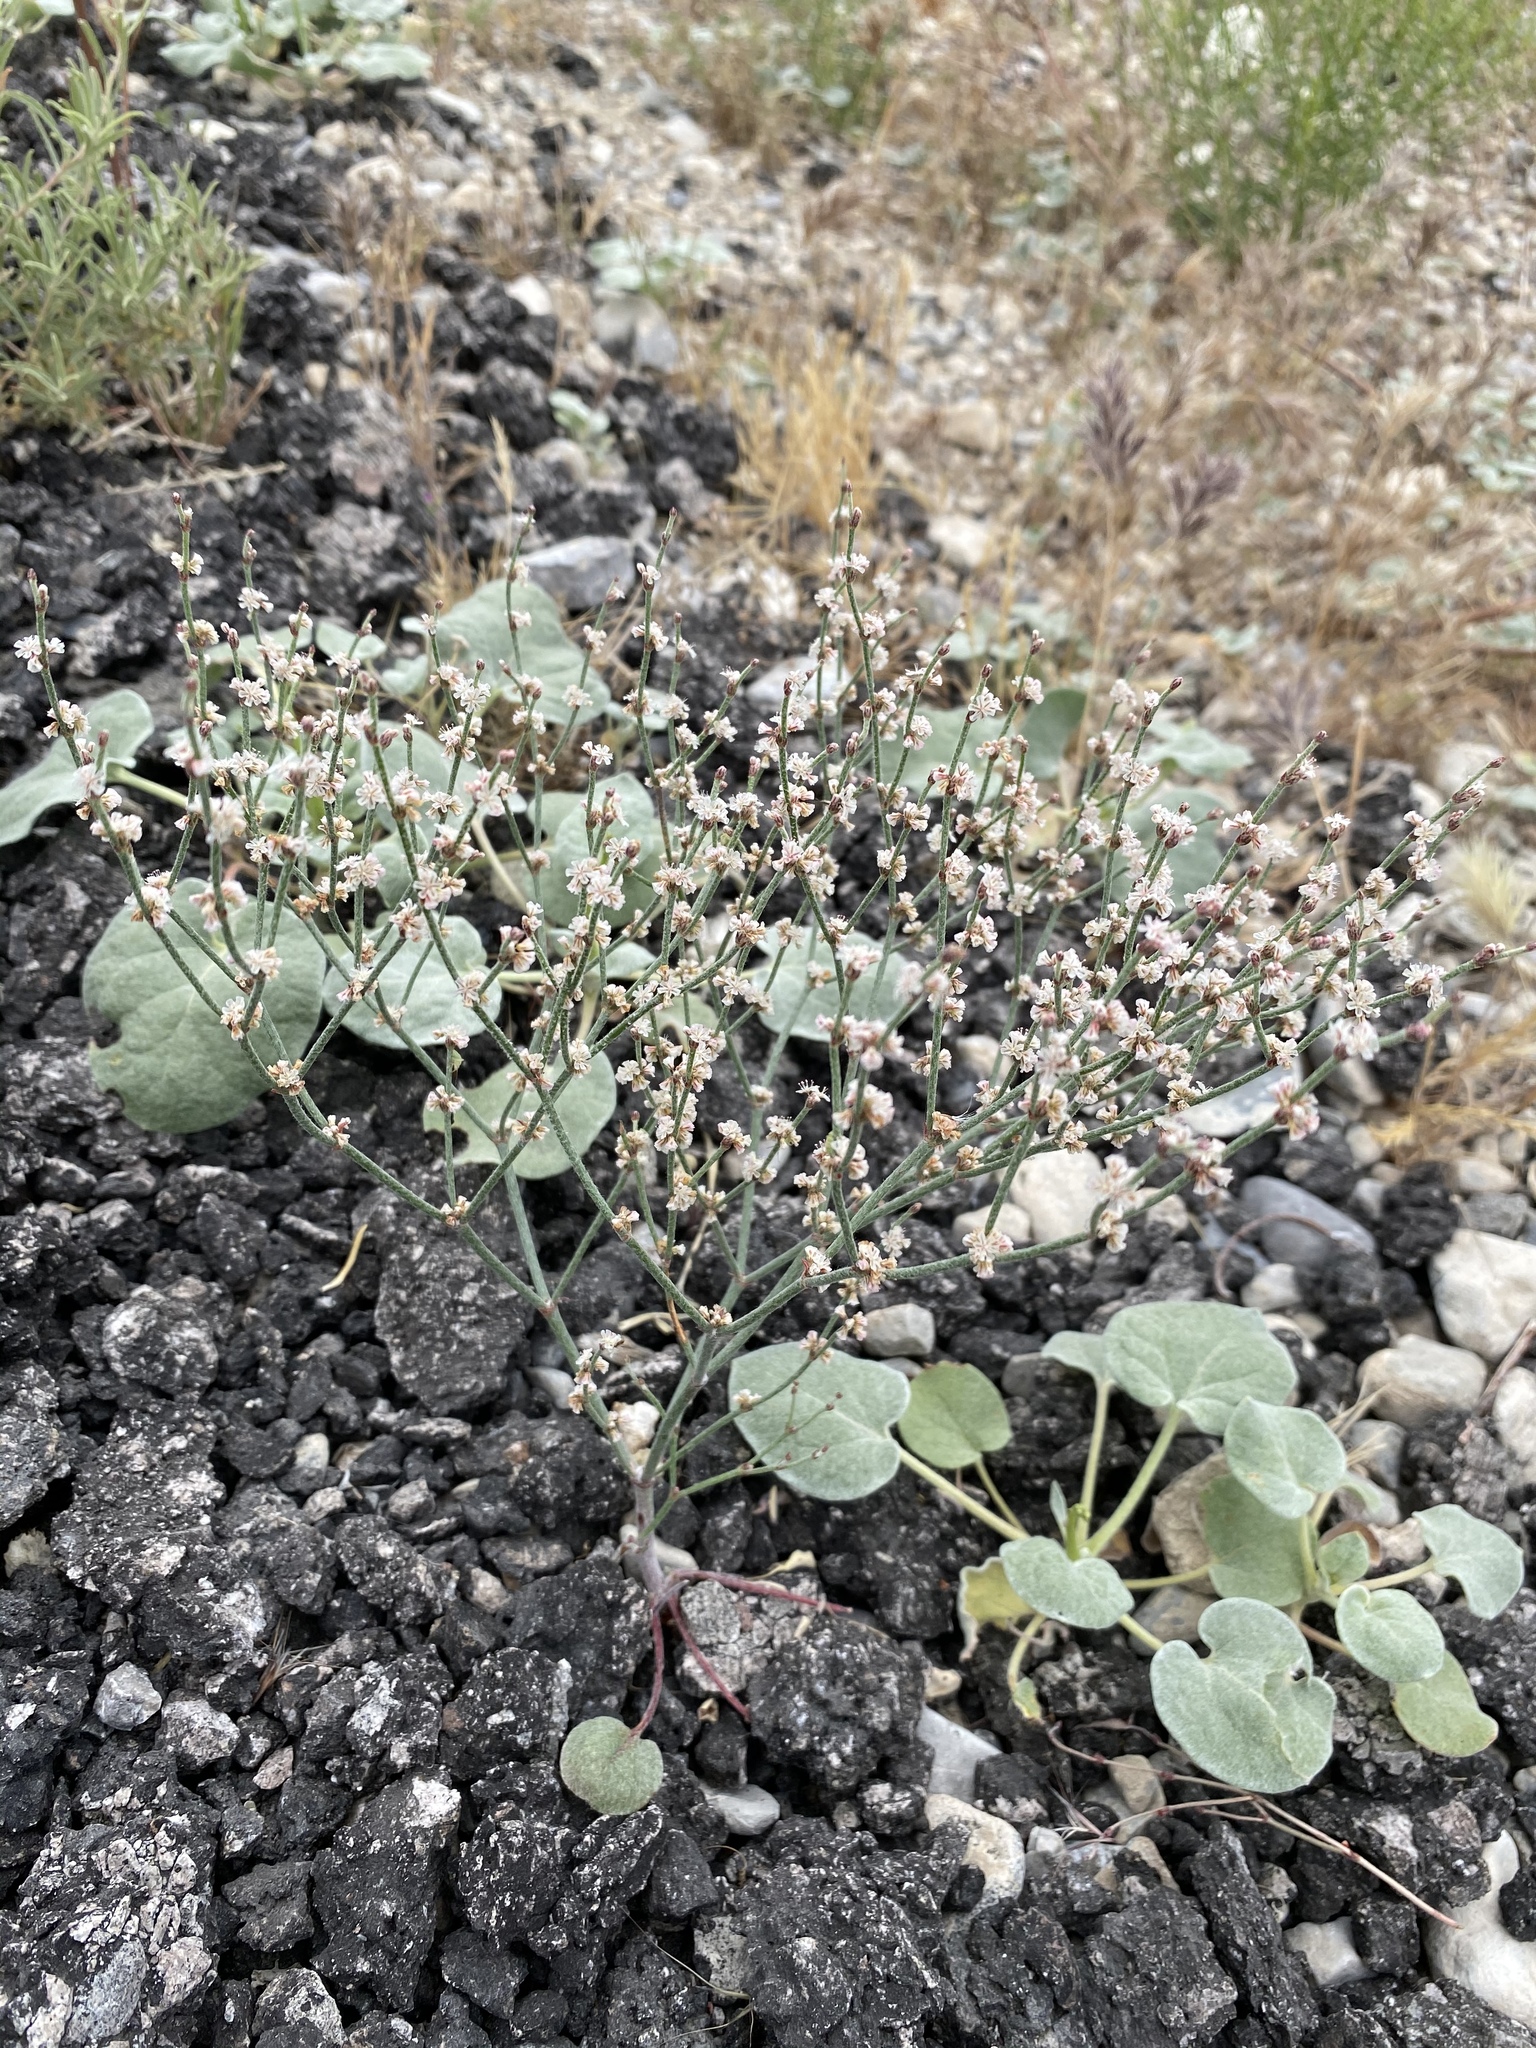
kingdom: Plantae
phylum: Tracheophyta
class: Magnoliopsida
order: Caryophyllales
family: Polygonaceae
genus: Eriogonum
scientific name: Eriogonum palmerianum
